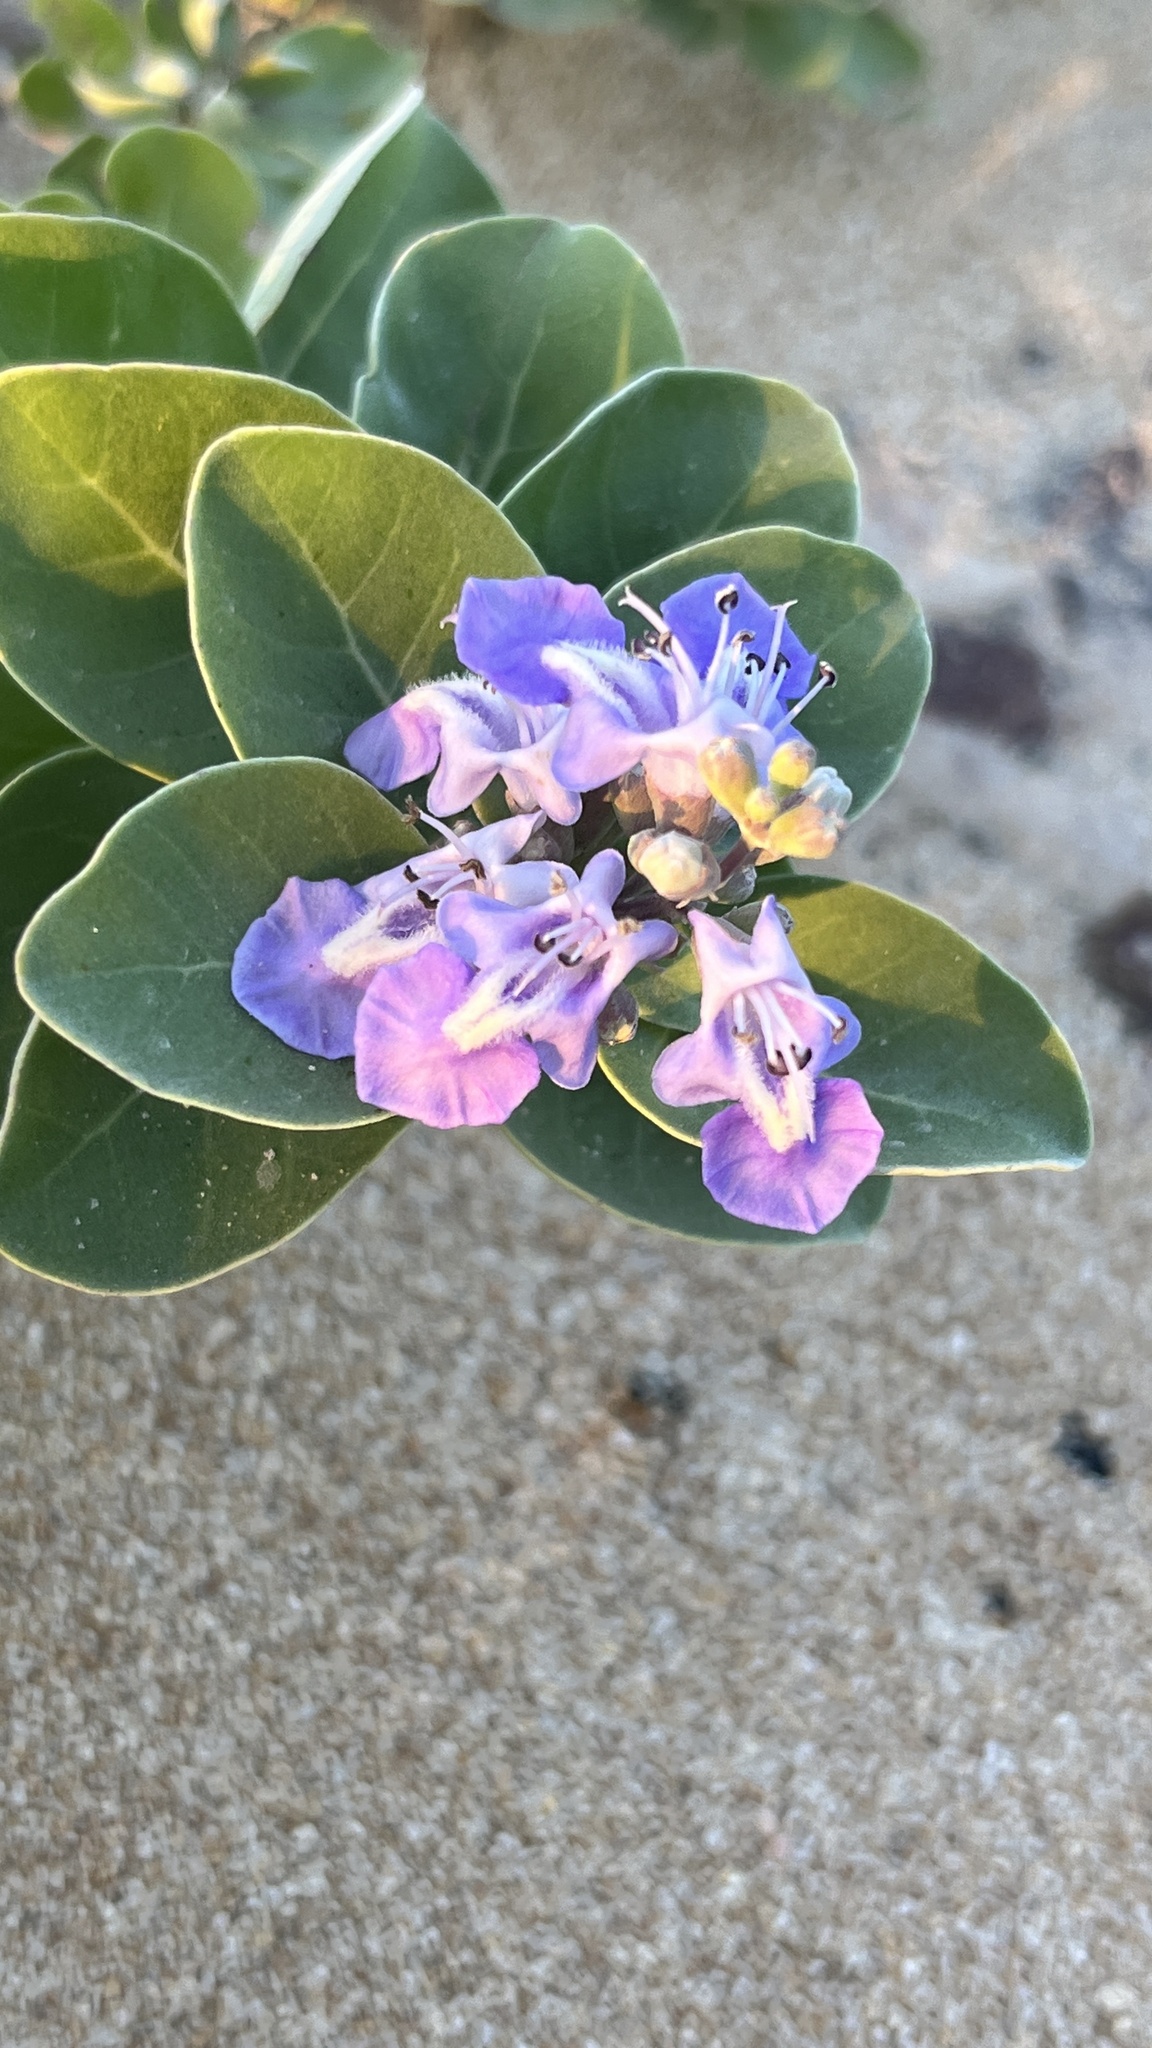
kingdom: Plantae
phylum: Tracheophyta
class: Magnoliopsida
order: Lamiales
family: Lamiaceae
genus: Vitex
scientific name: Vitex rotundifolia
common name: Beach vitex
